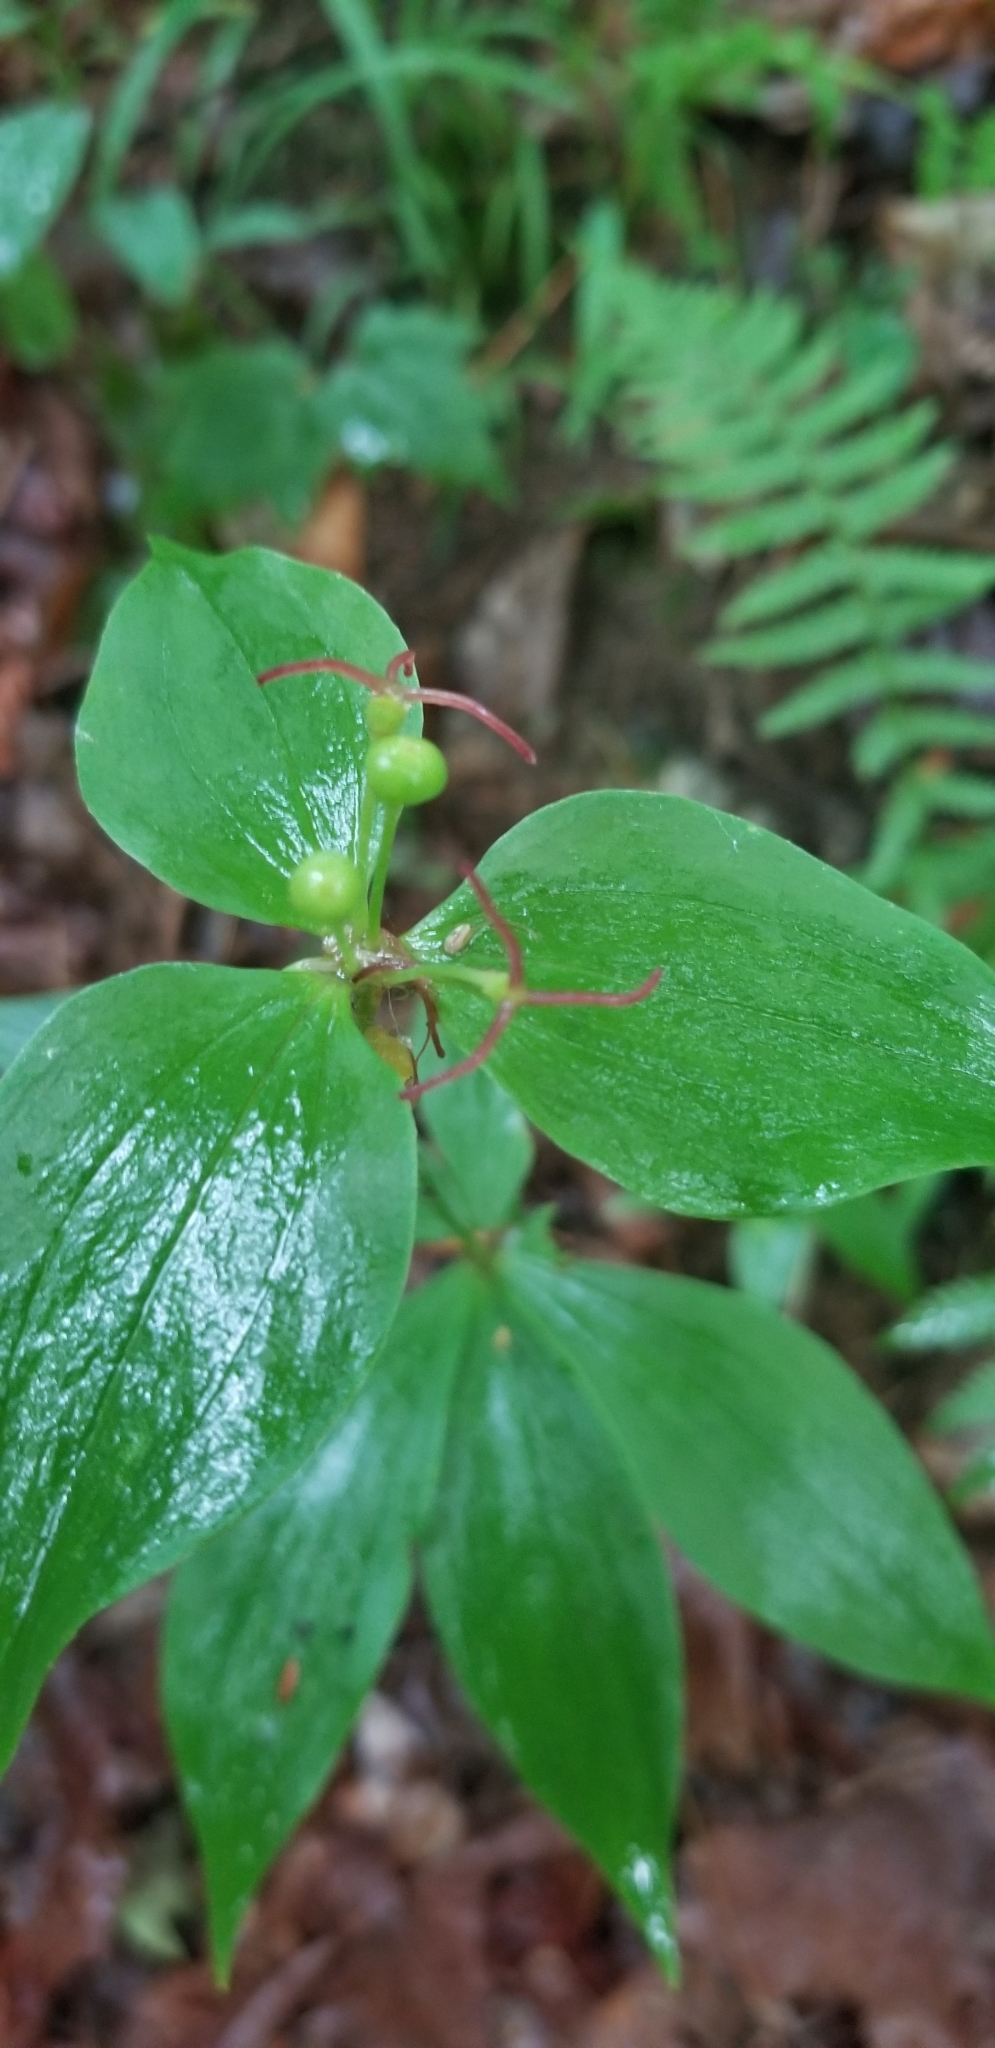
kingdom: Plantae
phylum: Tracheophyta
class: Liliopsida
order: Liliales
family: Liliaceae
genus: Medeola
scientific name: Medeola virginiana
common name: Indian cucumber-root
